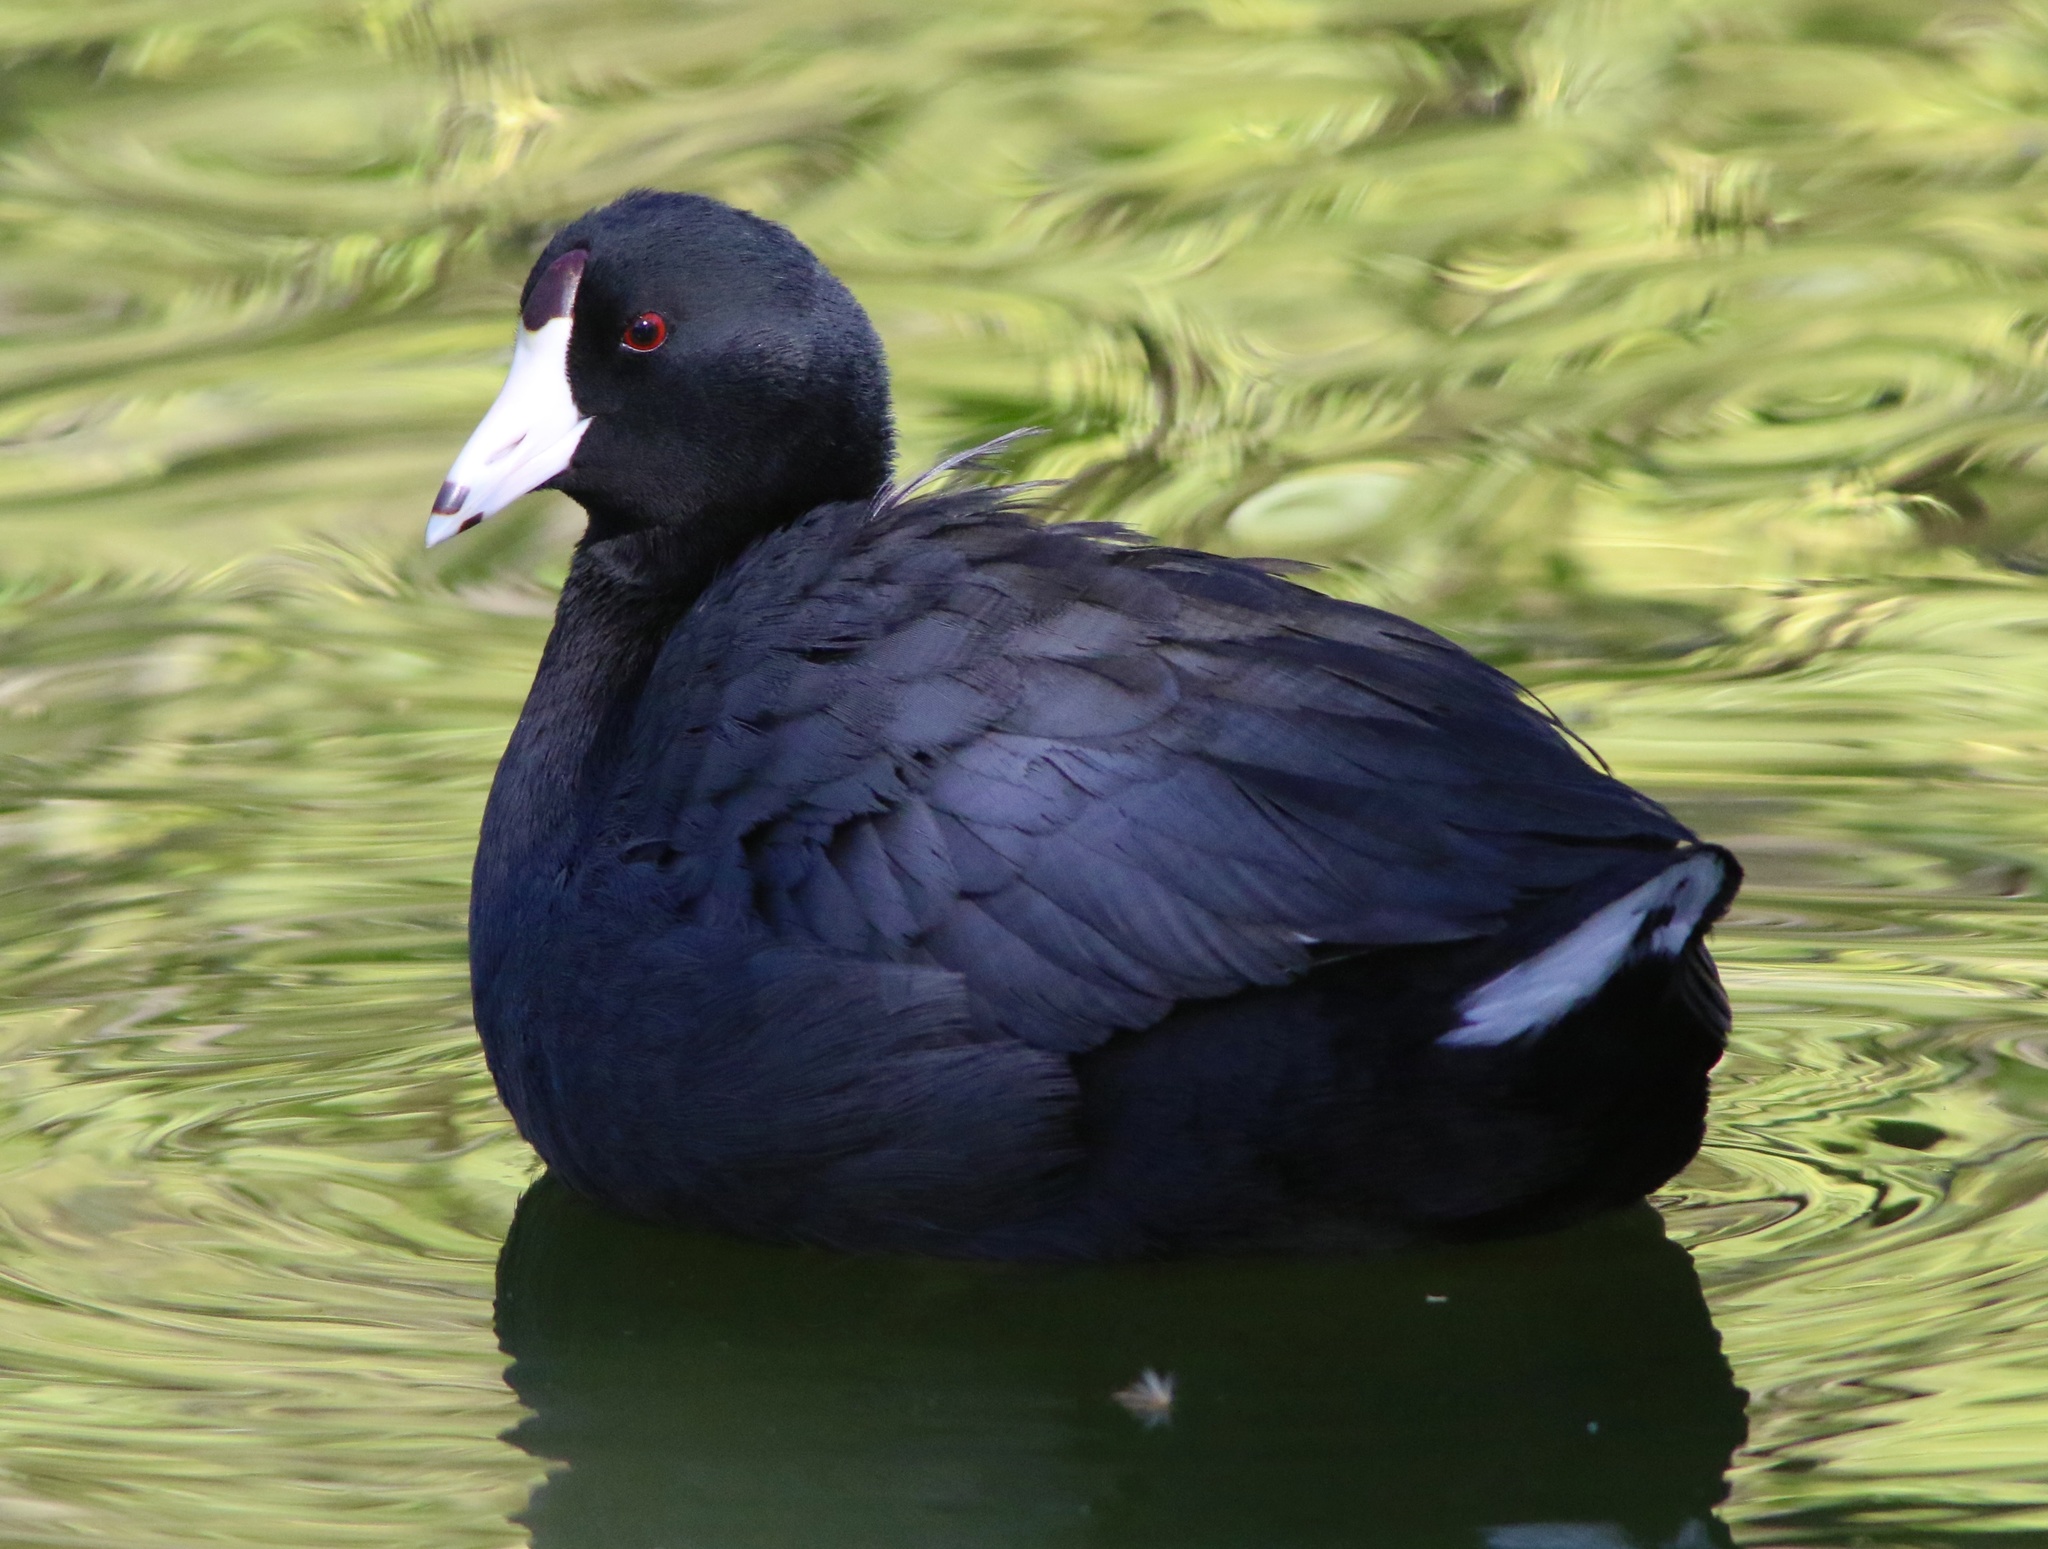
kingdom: Animalia
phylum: Chordata
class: Aves
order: Gruiformes
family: Rallidae
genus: Fulica
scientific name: Fulica americana
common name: American coot
